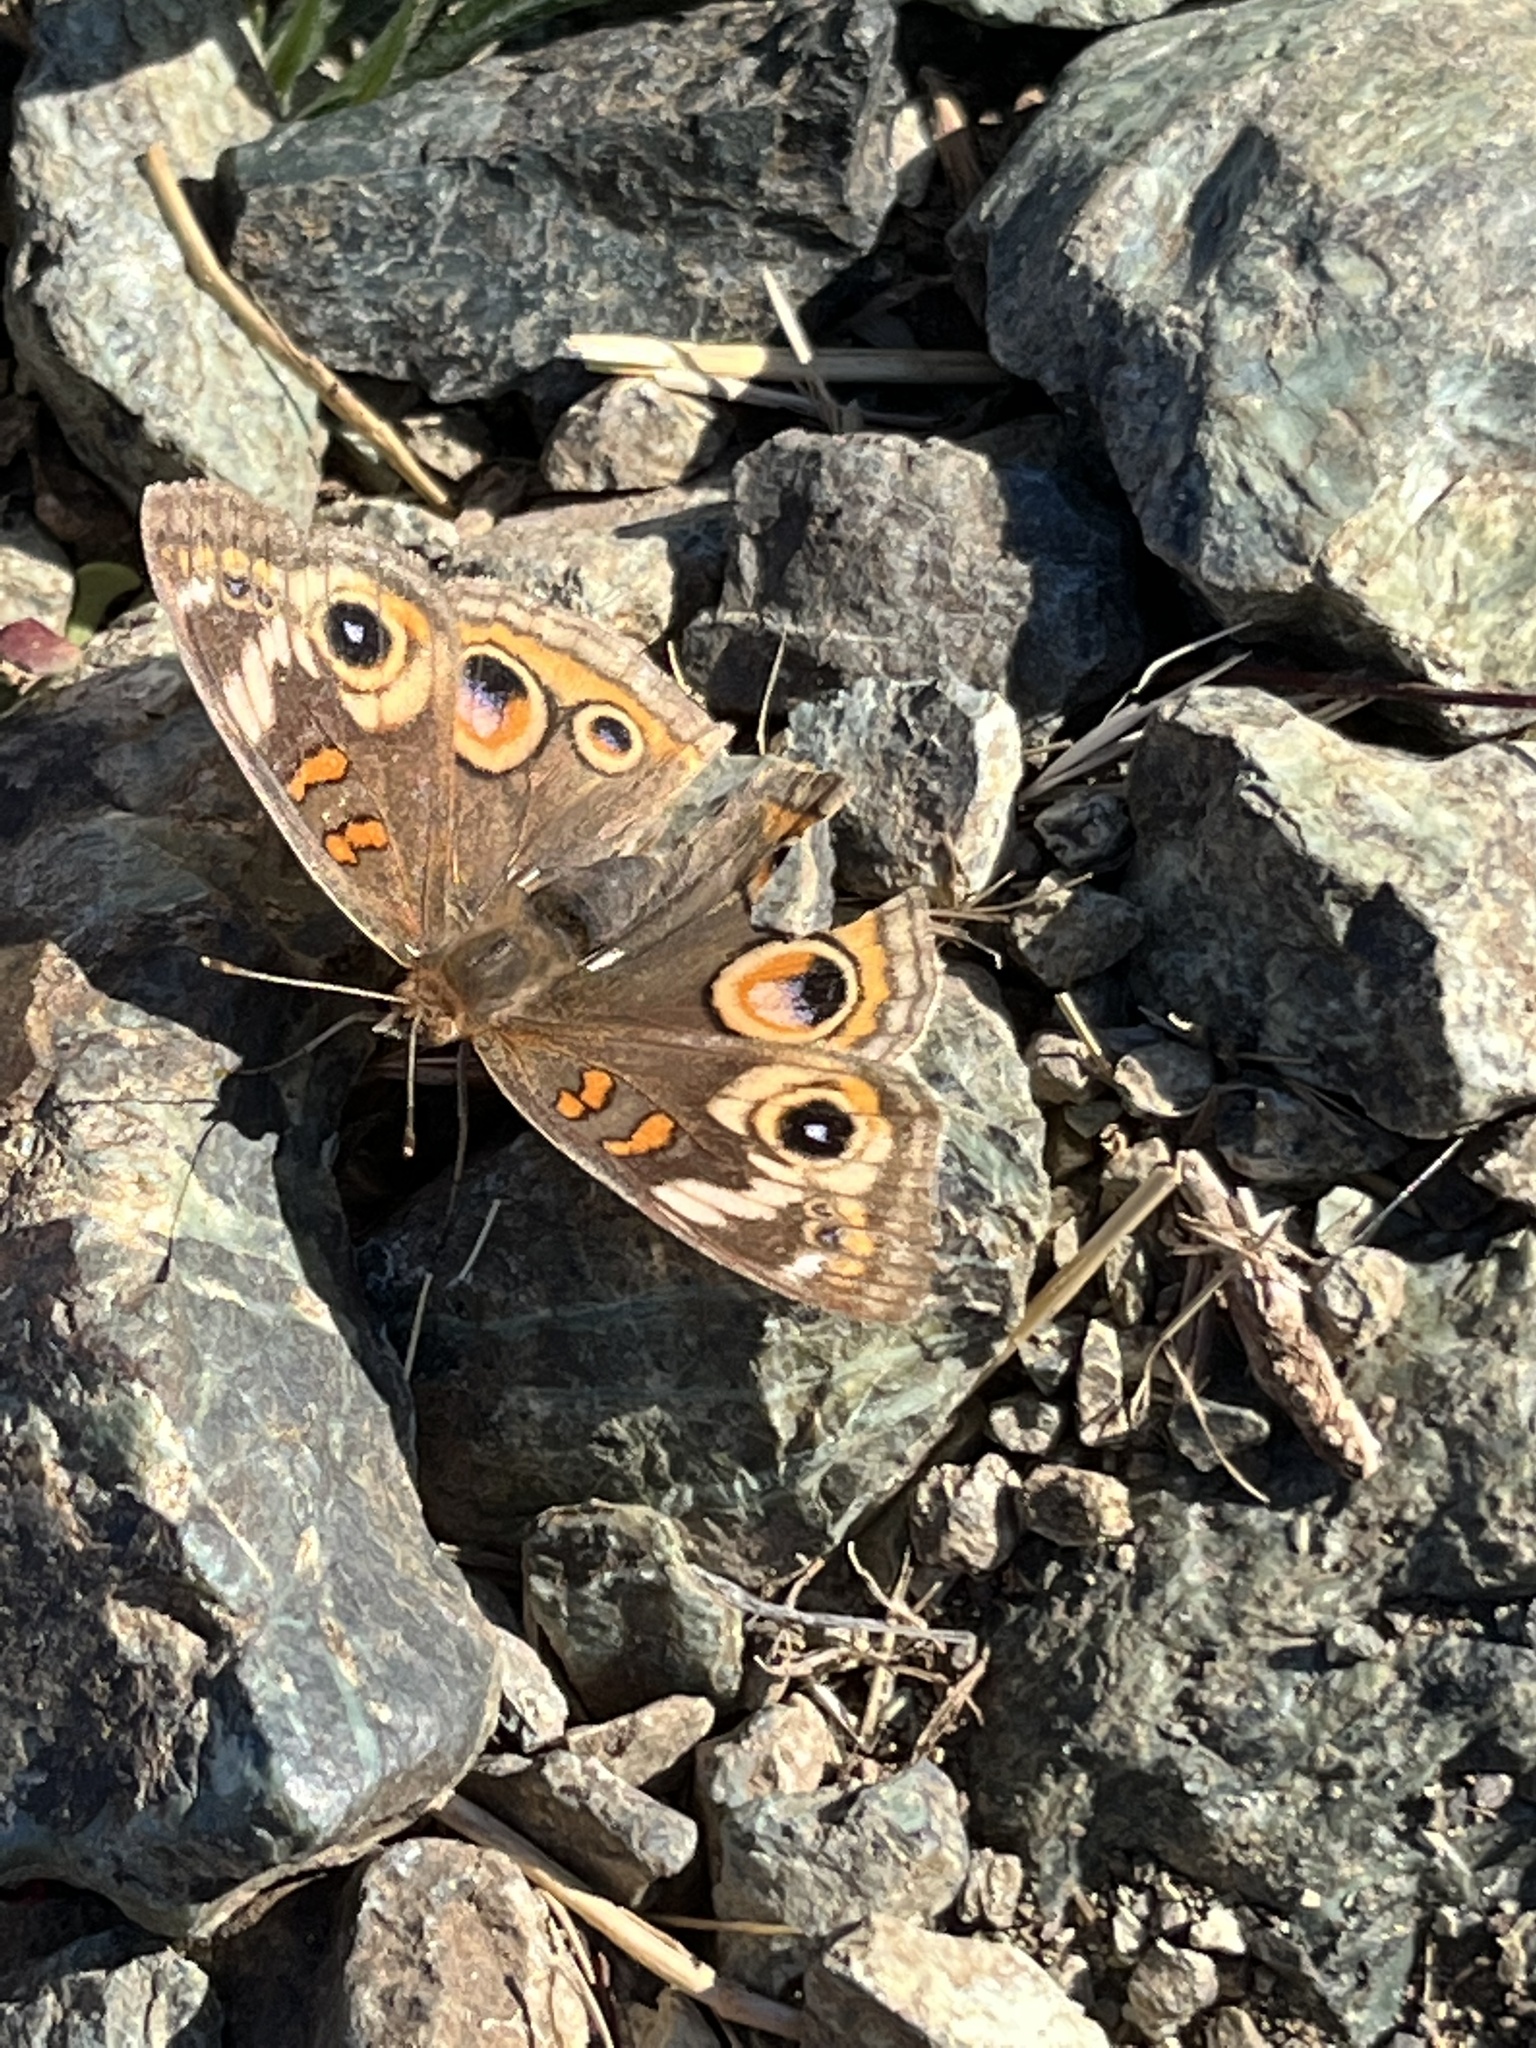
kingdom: Animalia
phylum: Arthropoda
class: Insecta
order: Lepidoptera
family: Nymphalidae
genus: Junonia
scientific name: Junonia grisea
